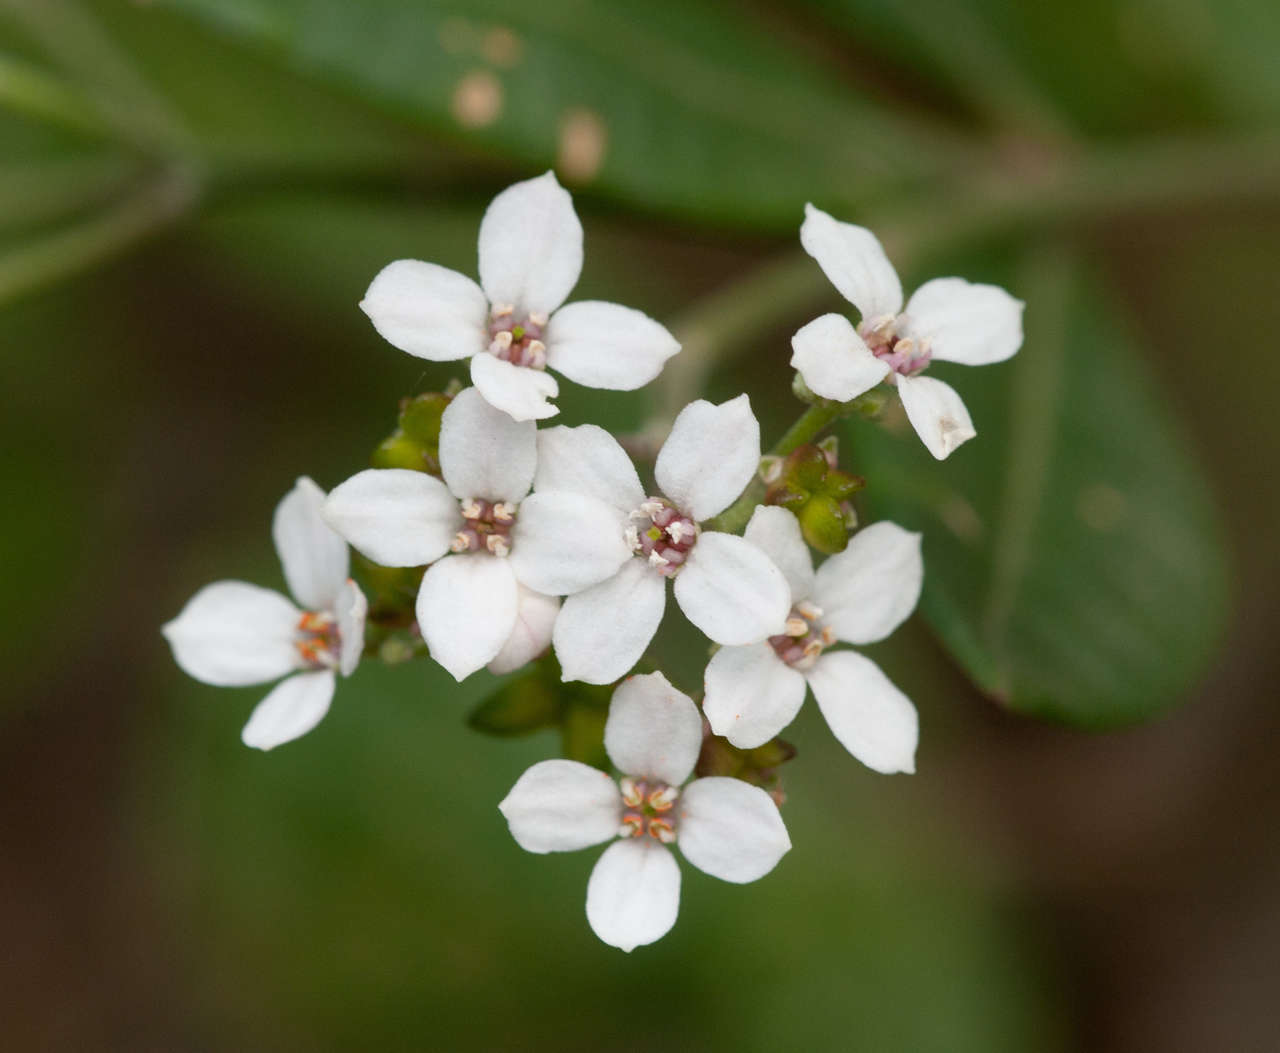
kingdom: Plantae
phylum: Tracheophyta
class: Magnoliopsida
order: Sapindales
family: Rutaceae
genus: Zieria
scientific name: Zieria arborescens
